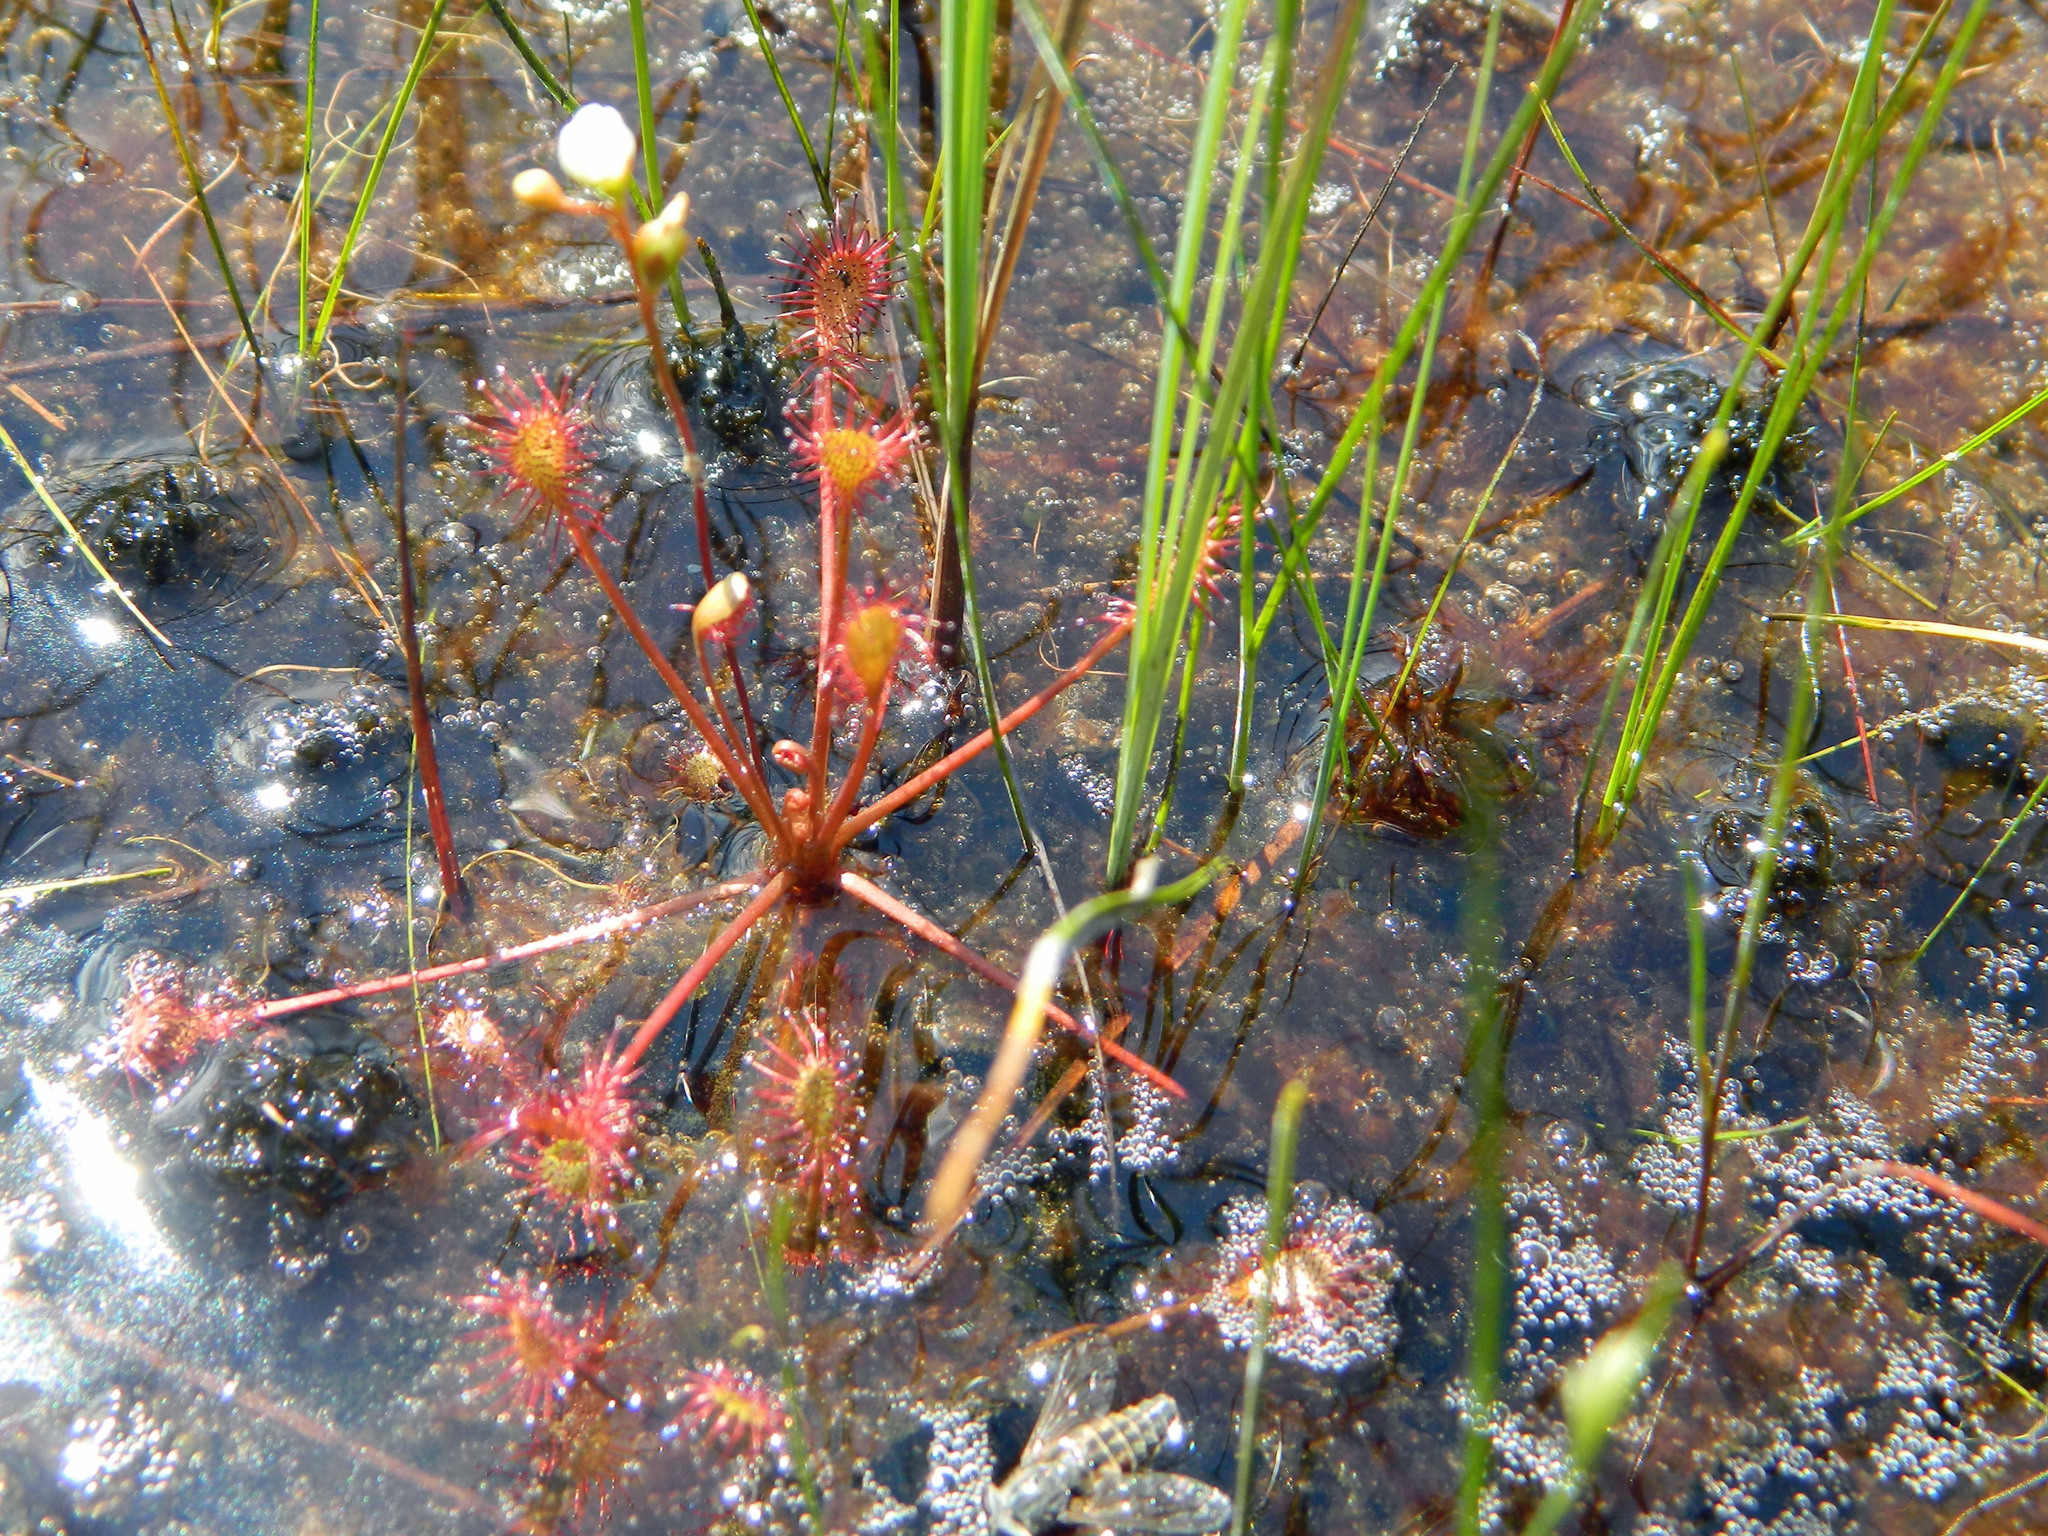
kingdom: Plantae
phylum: Tracheophyta
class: Magnoliopsida
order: Caryophyllales
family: Droseraceae
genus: Drosera
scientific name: Drosera intermedia
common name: Oblong-leaved sundew
